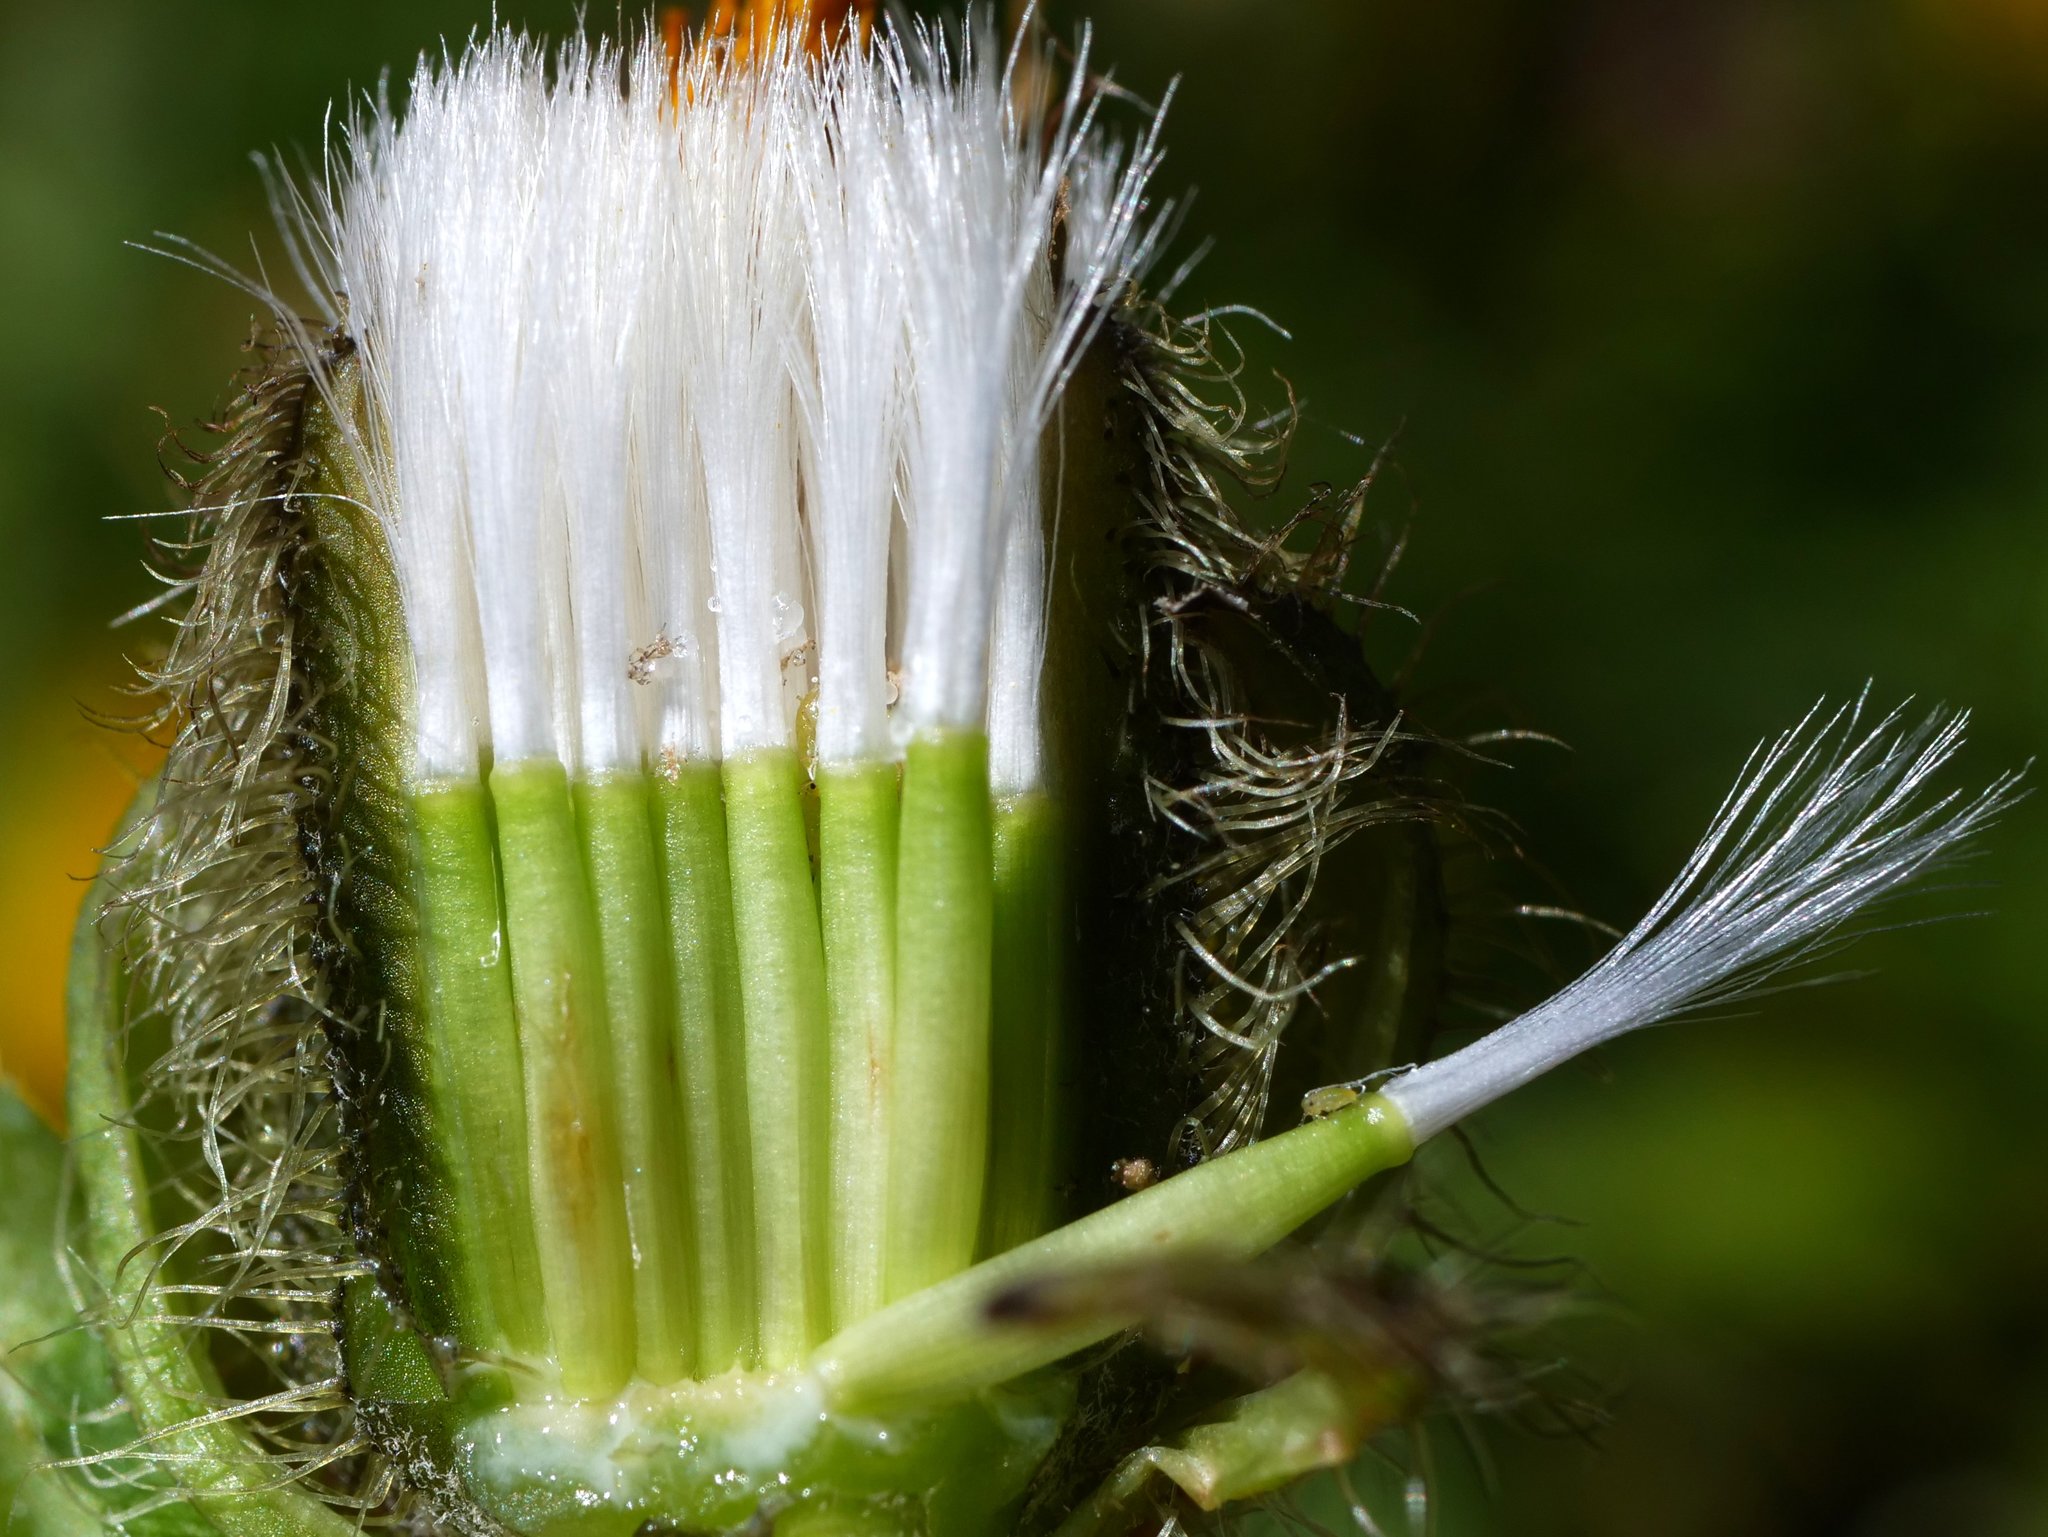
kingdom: Plantae
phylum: Tracheophyta
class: Magnoliopsida
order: Asterales
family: Asteraceae
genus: Crepis
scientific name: Crepis pyrenaica
